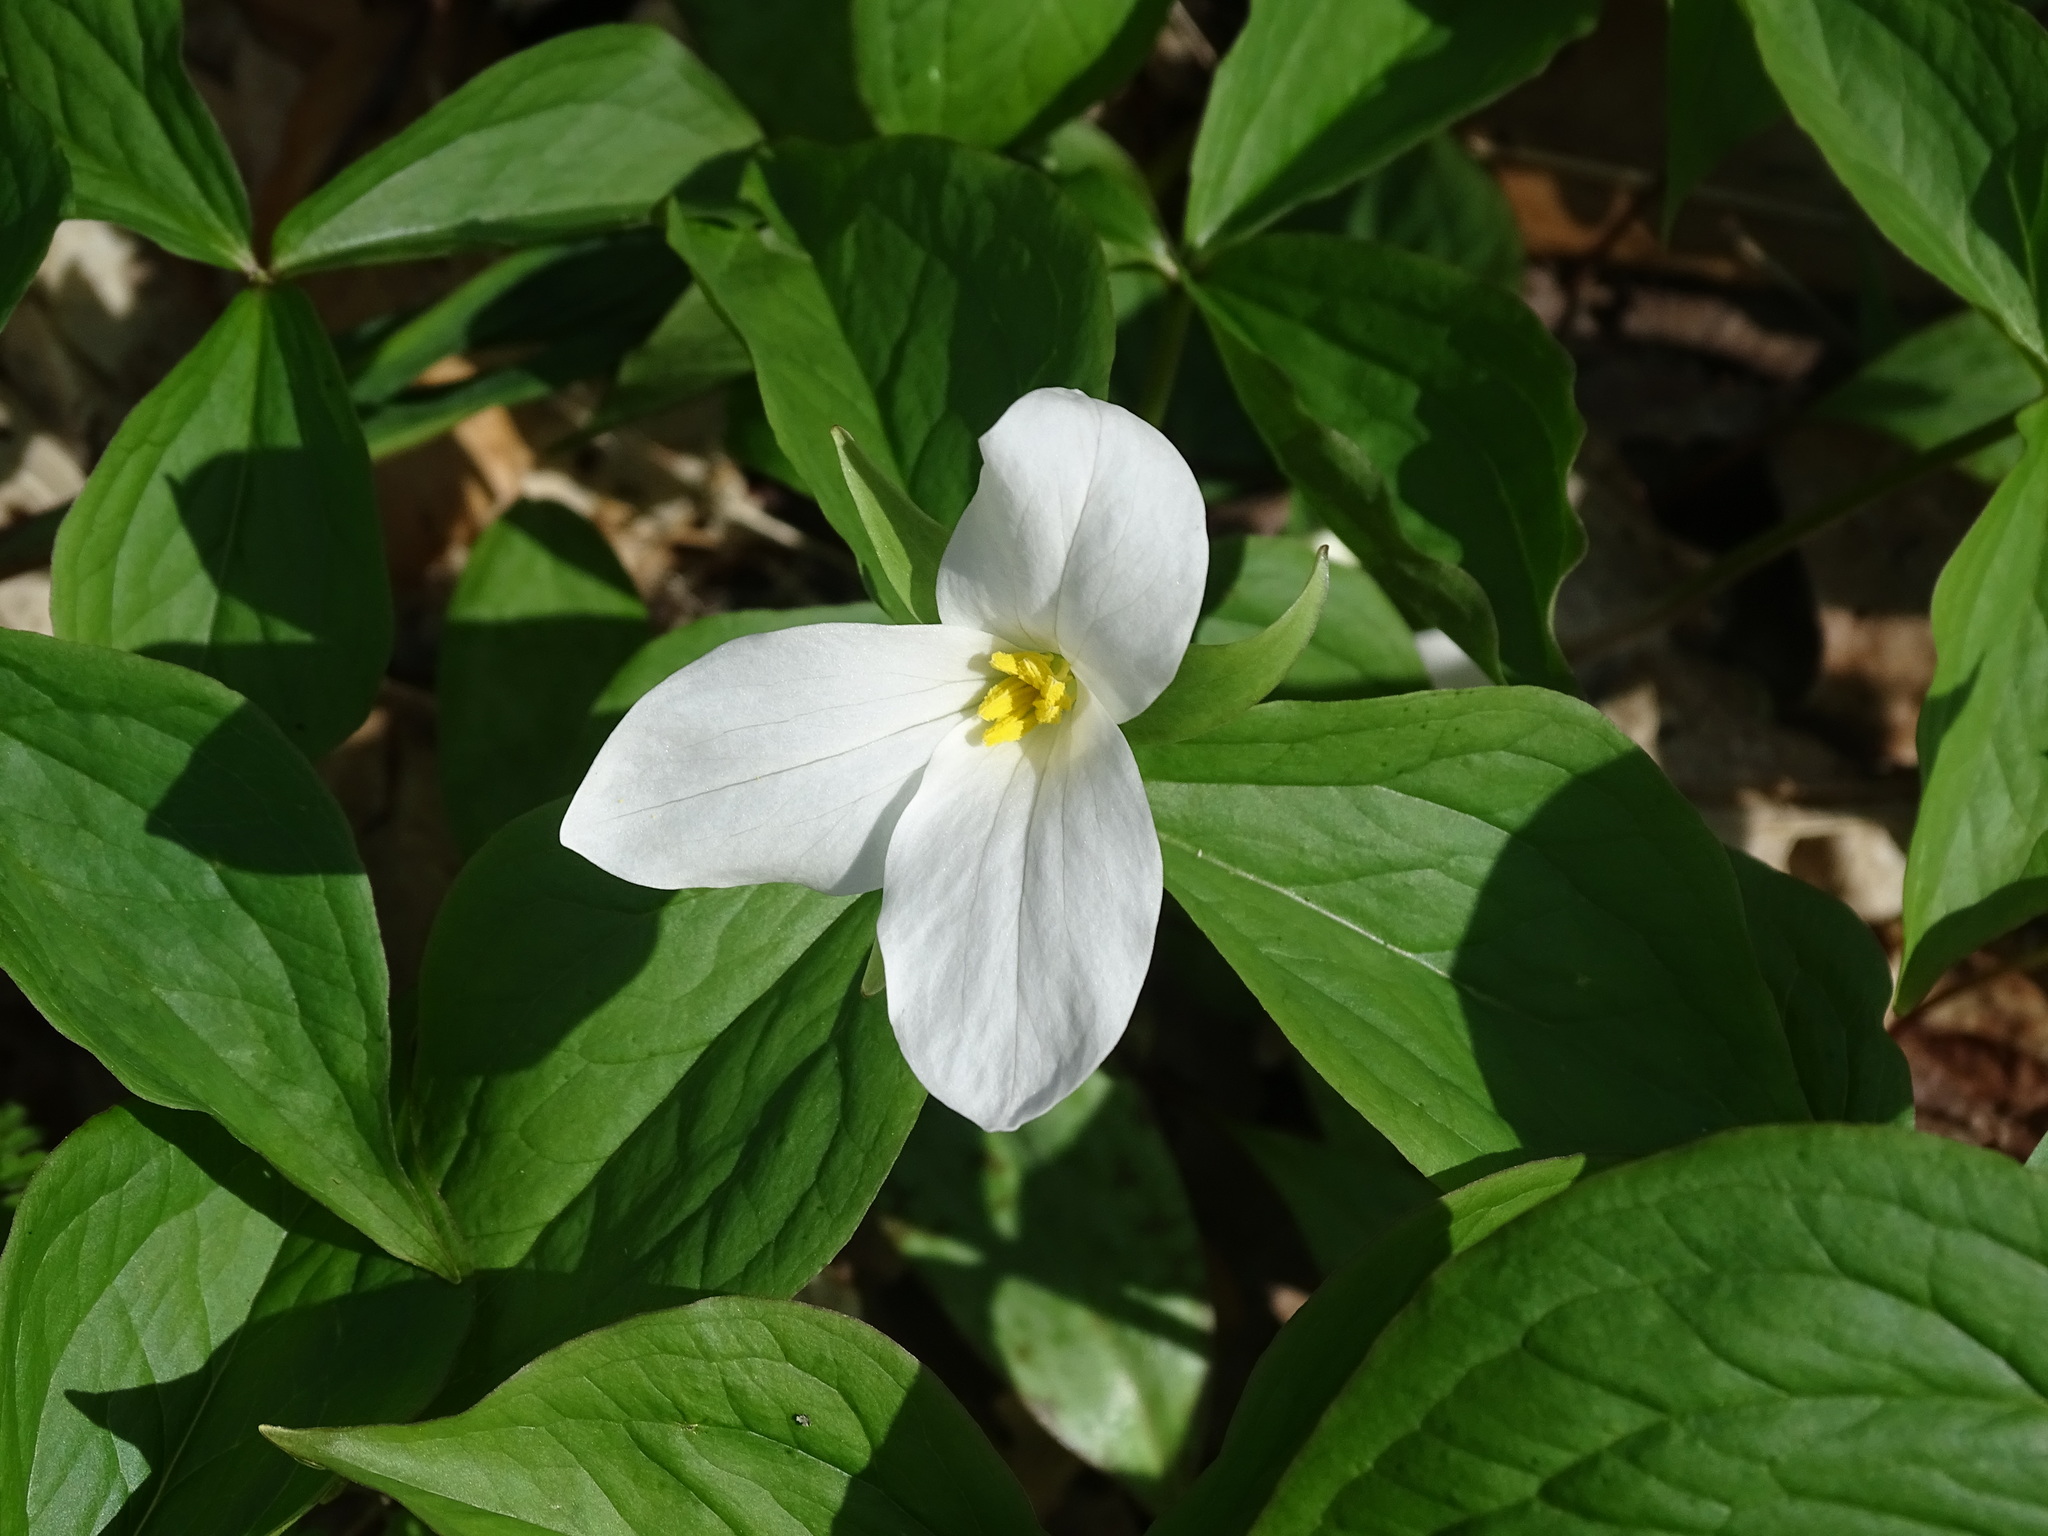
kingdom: Plantae
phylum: Tracheophyta
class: Liliopsida
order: Liliales
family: Melanthiaceae
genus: Trillium
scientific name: Trillium grandiflorum
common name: Great white trillium
